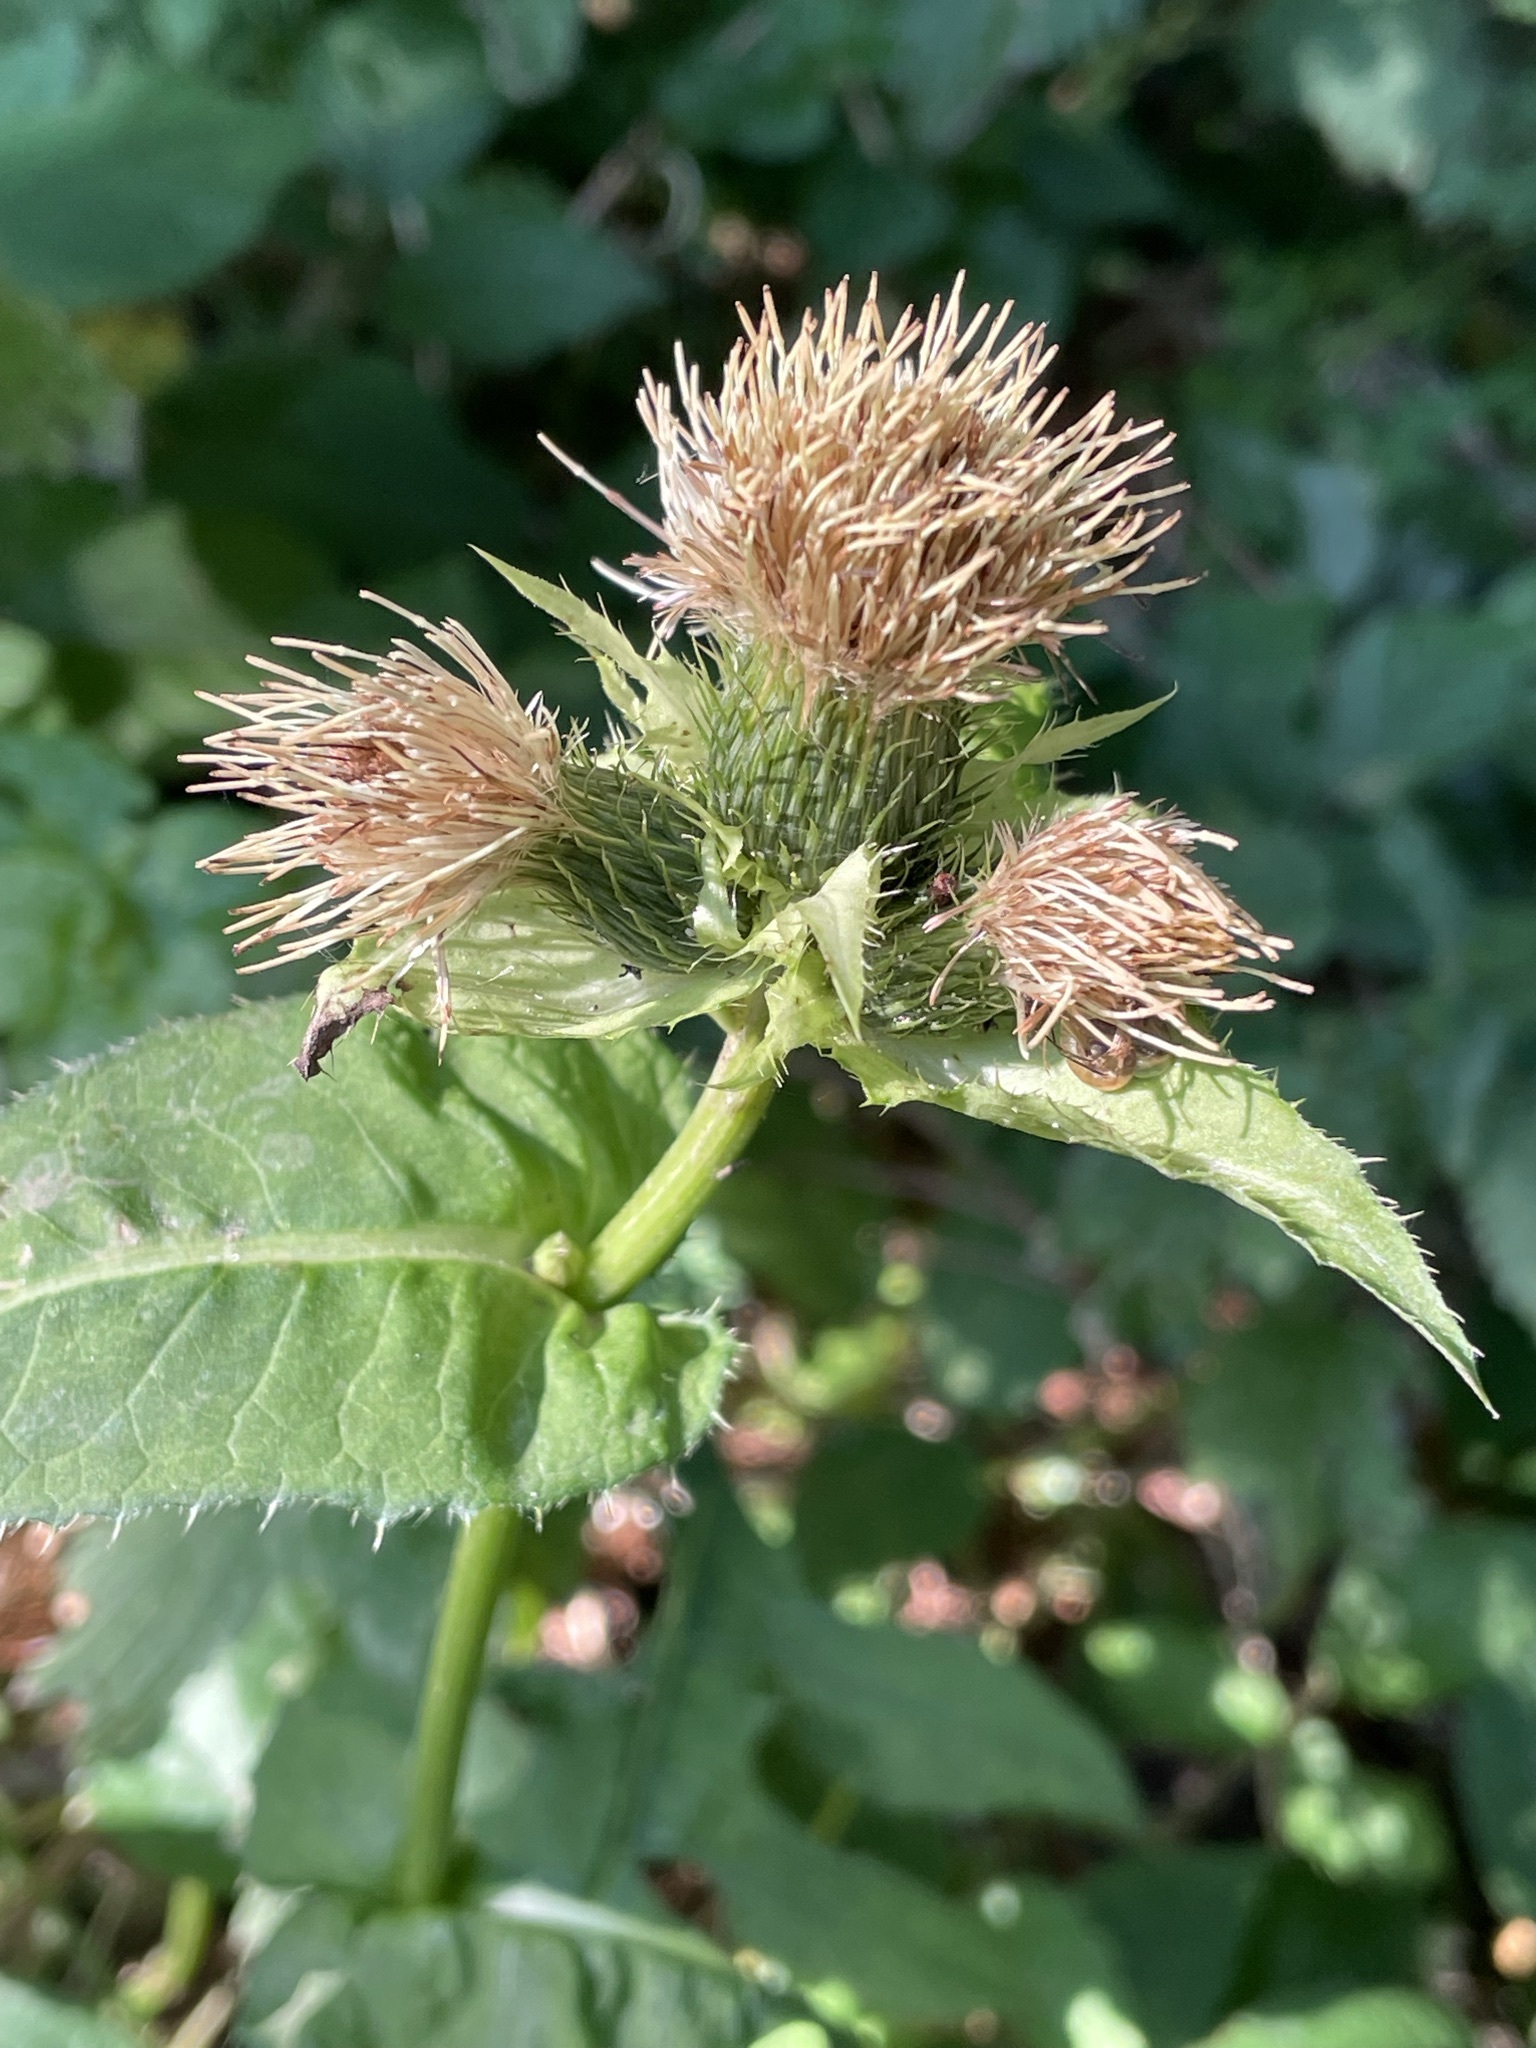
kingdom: Plantae
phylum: Tracheophyta
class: Magnoliopsida
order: Asterales
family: Asteraceae
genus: Cirsium
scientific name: Cirsium oleraceum
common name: Cabbage thistle
